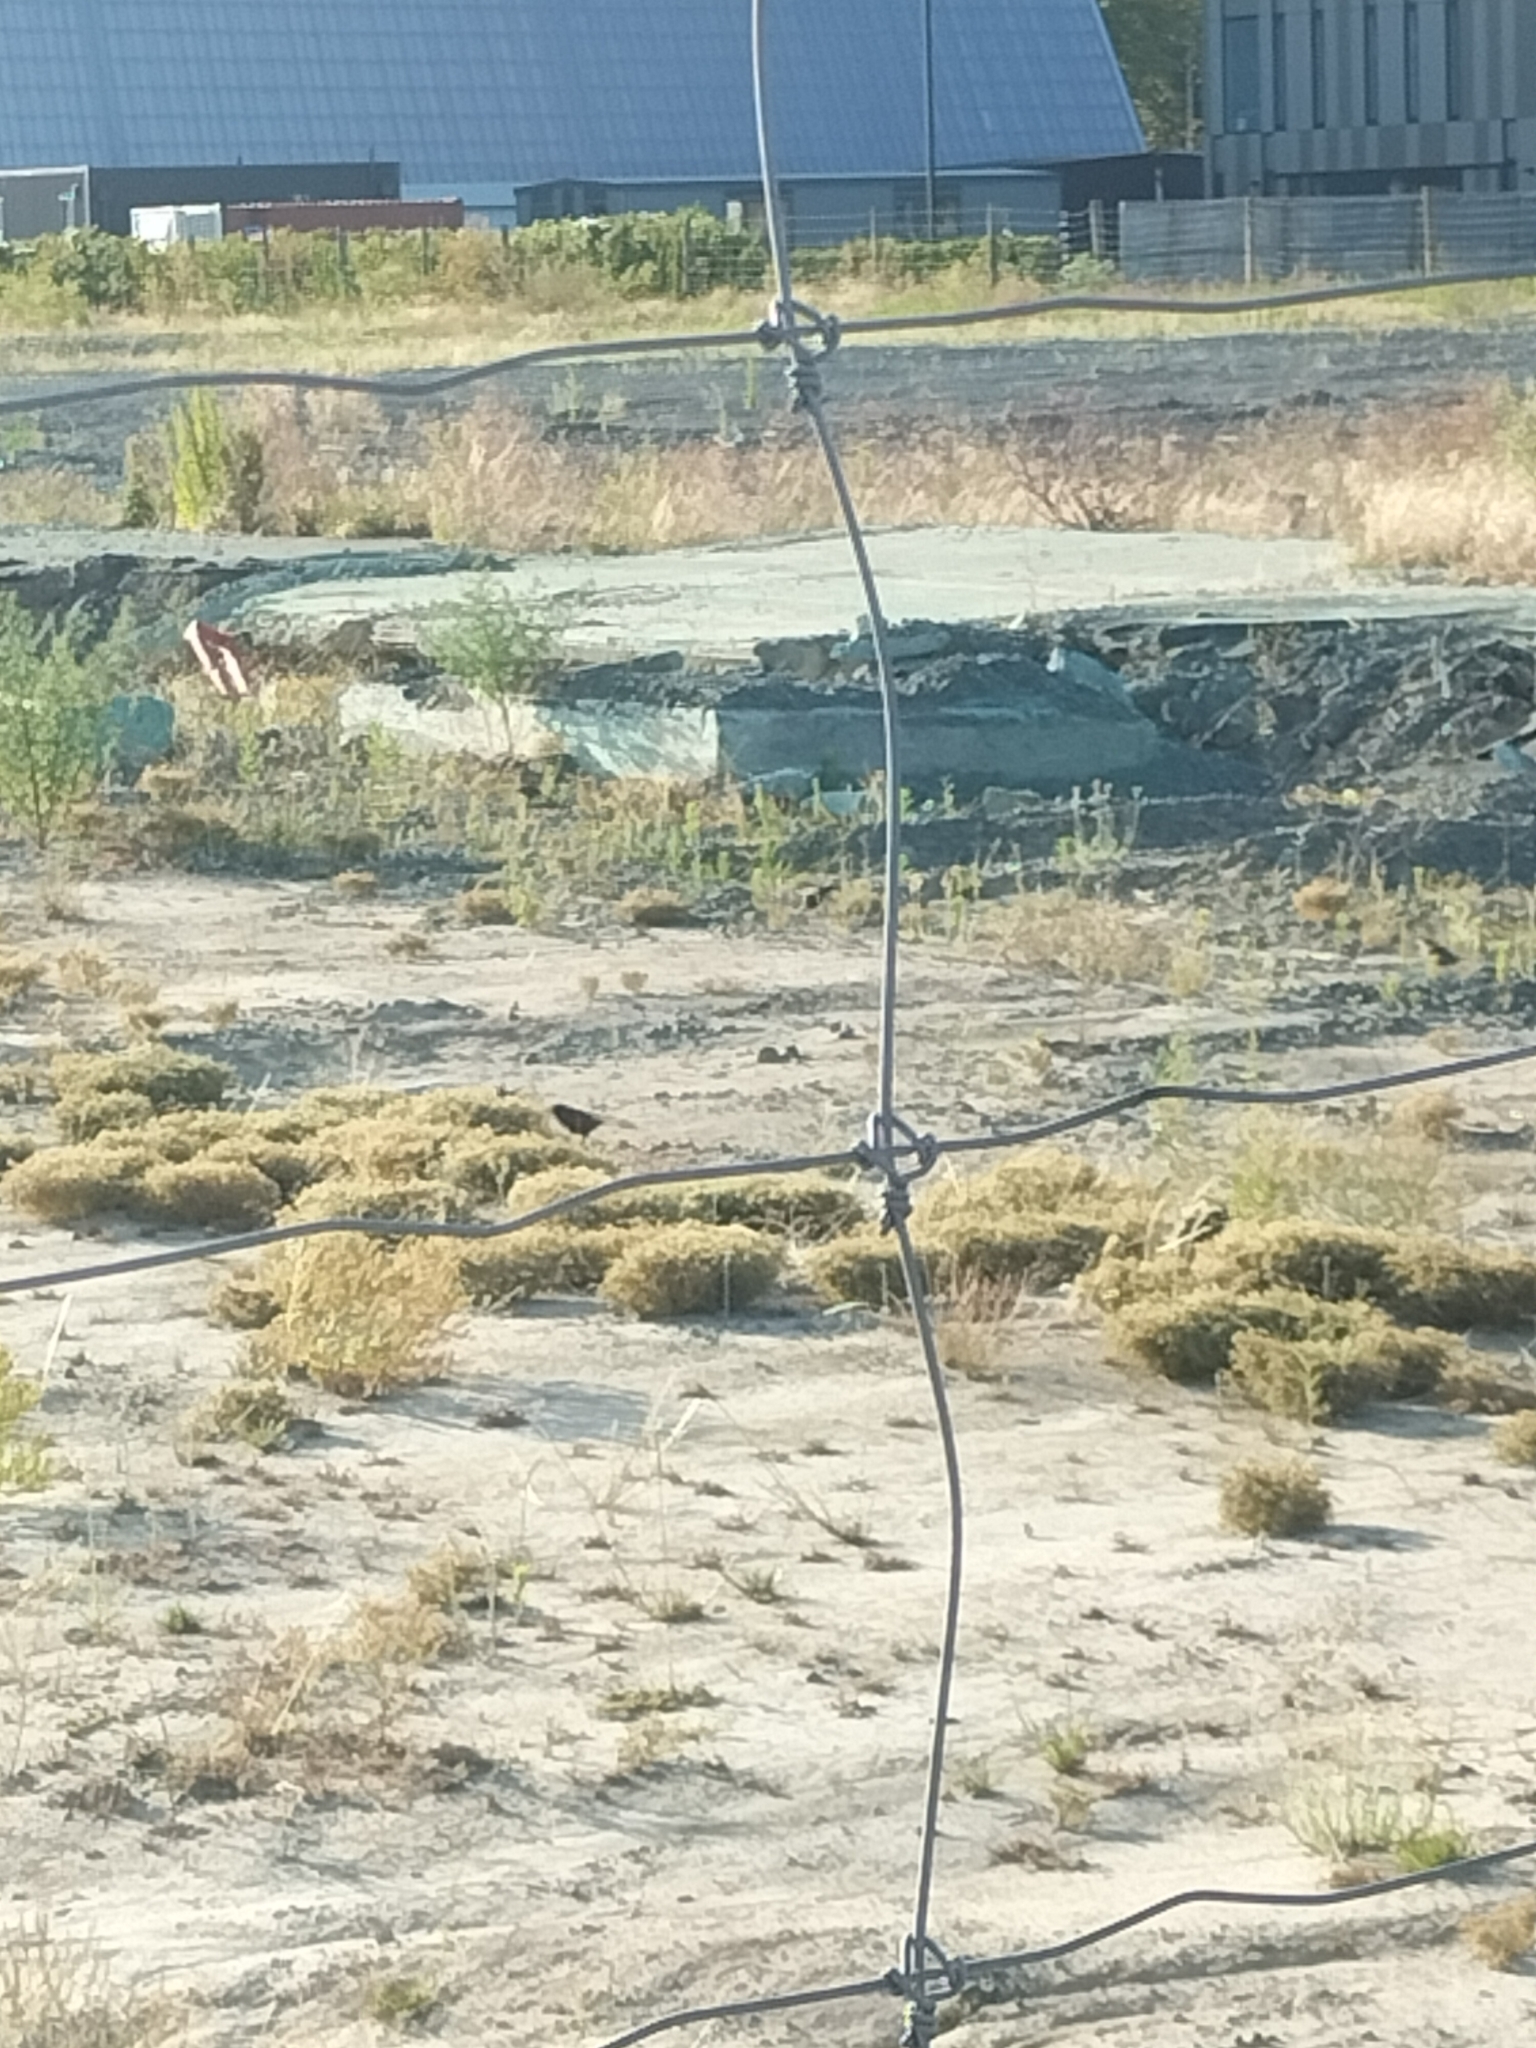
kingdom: Animalia
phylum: Chordata
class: Aves
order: Passeriformes
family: Sturnidae
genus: Sturnus
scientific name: Sturnus vulgaris
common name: Common starling
